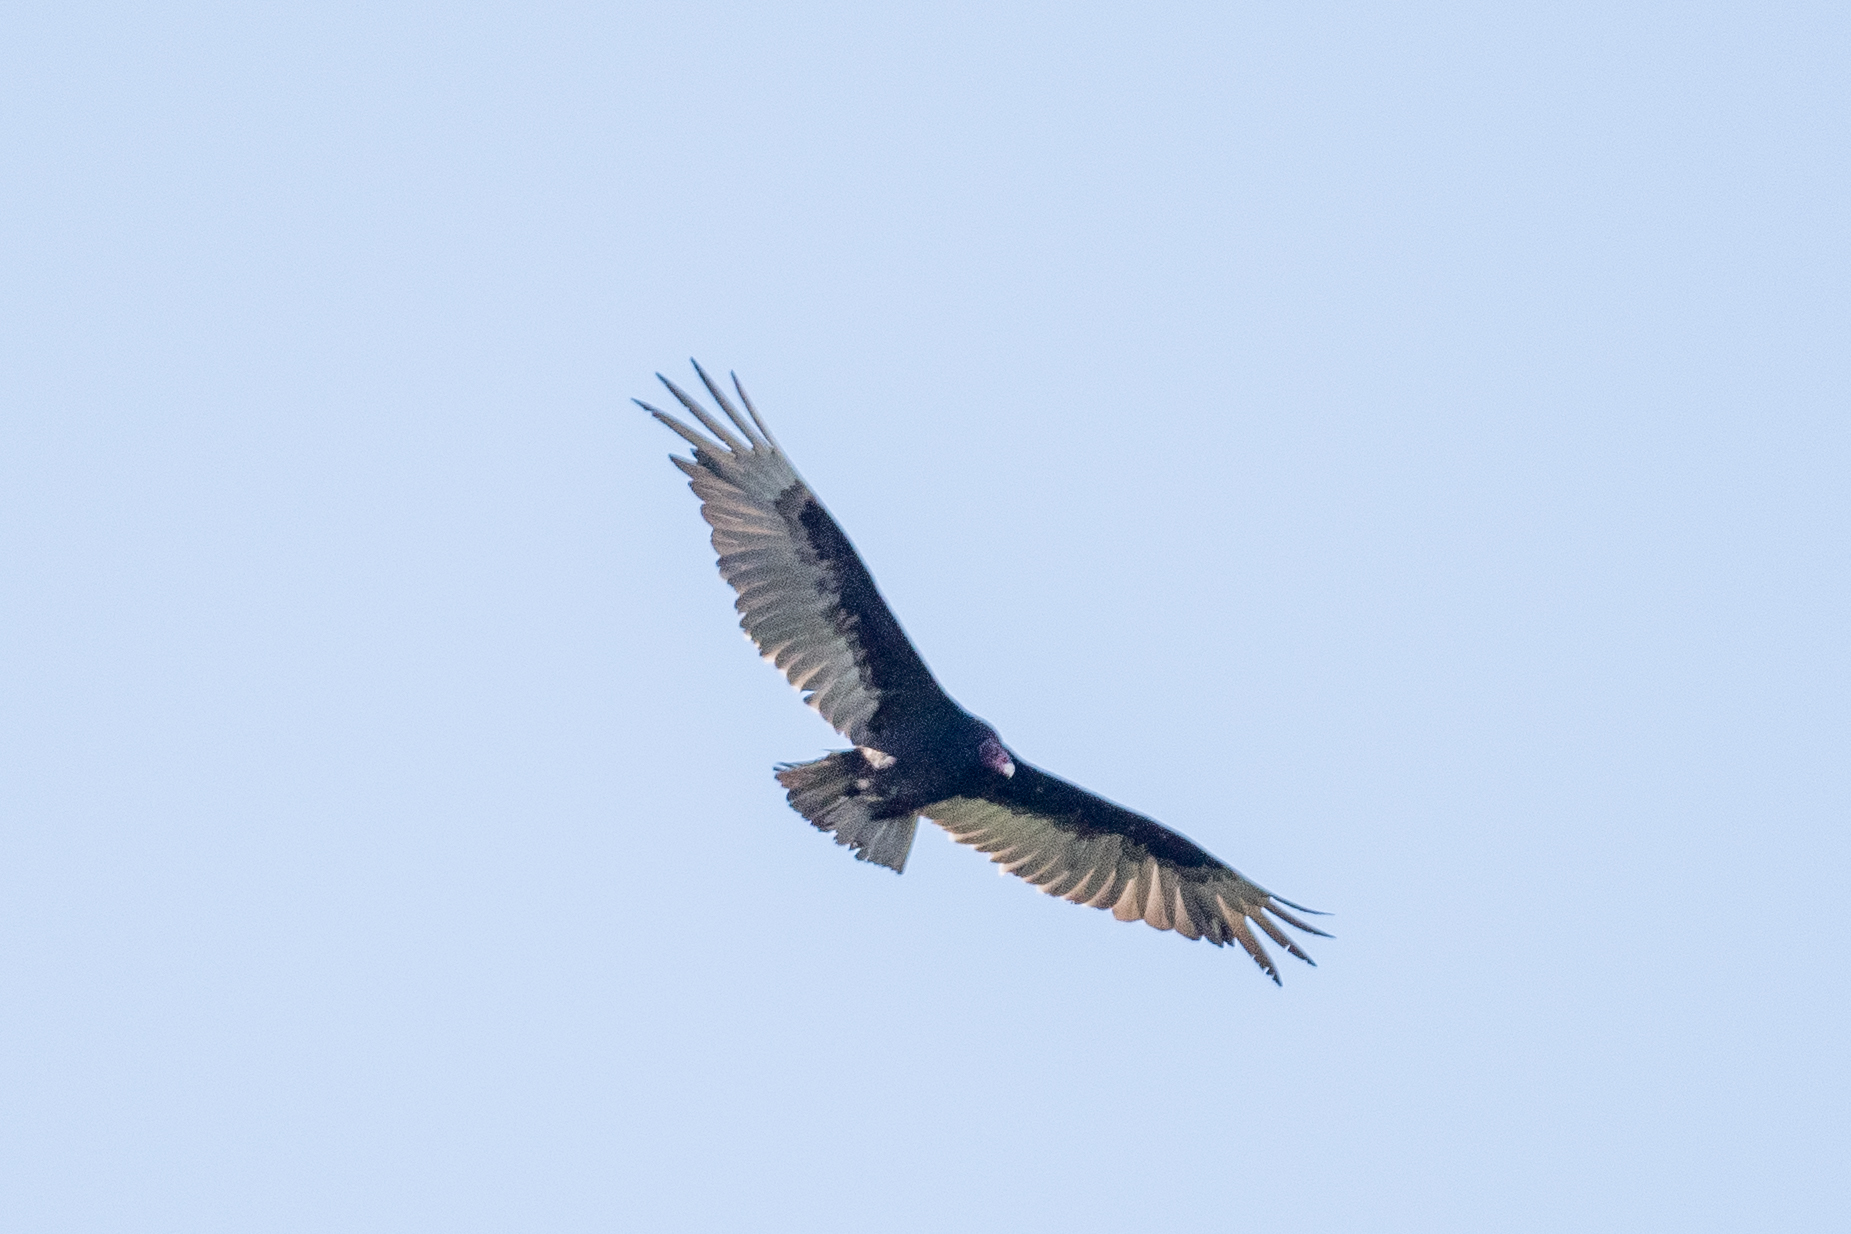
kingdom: Animalia
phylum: Chordata
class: Aves
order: Accipitriformes
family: Cathartidae
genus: Cathartes
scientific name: Cathartes aura
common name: Turkey vulture
